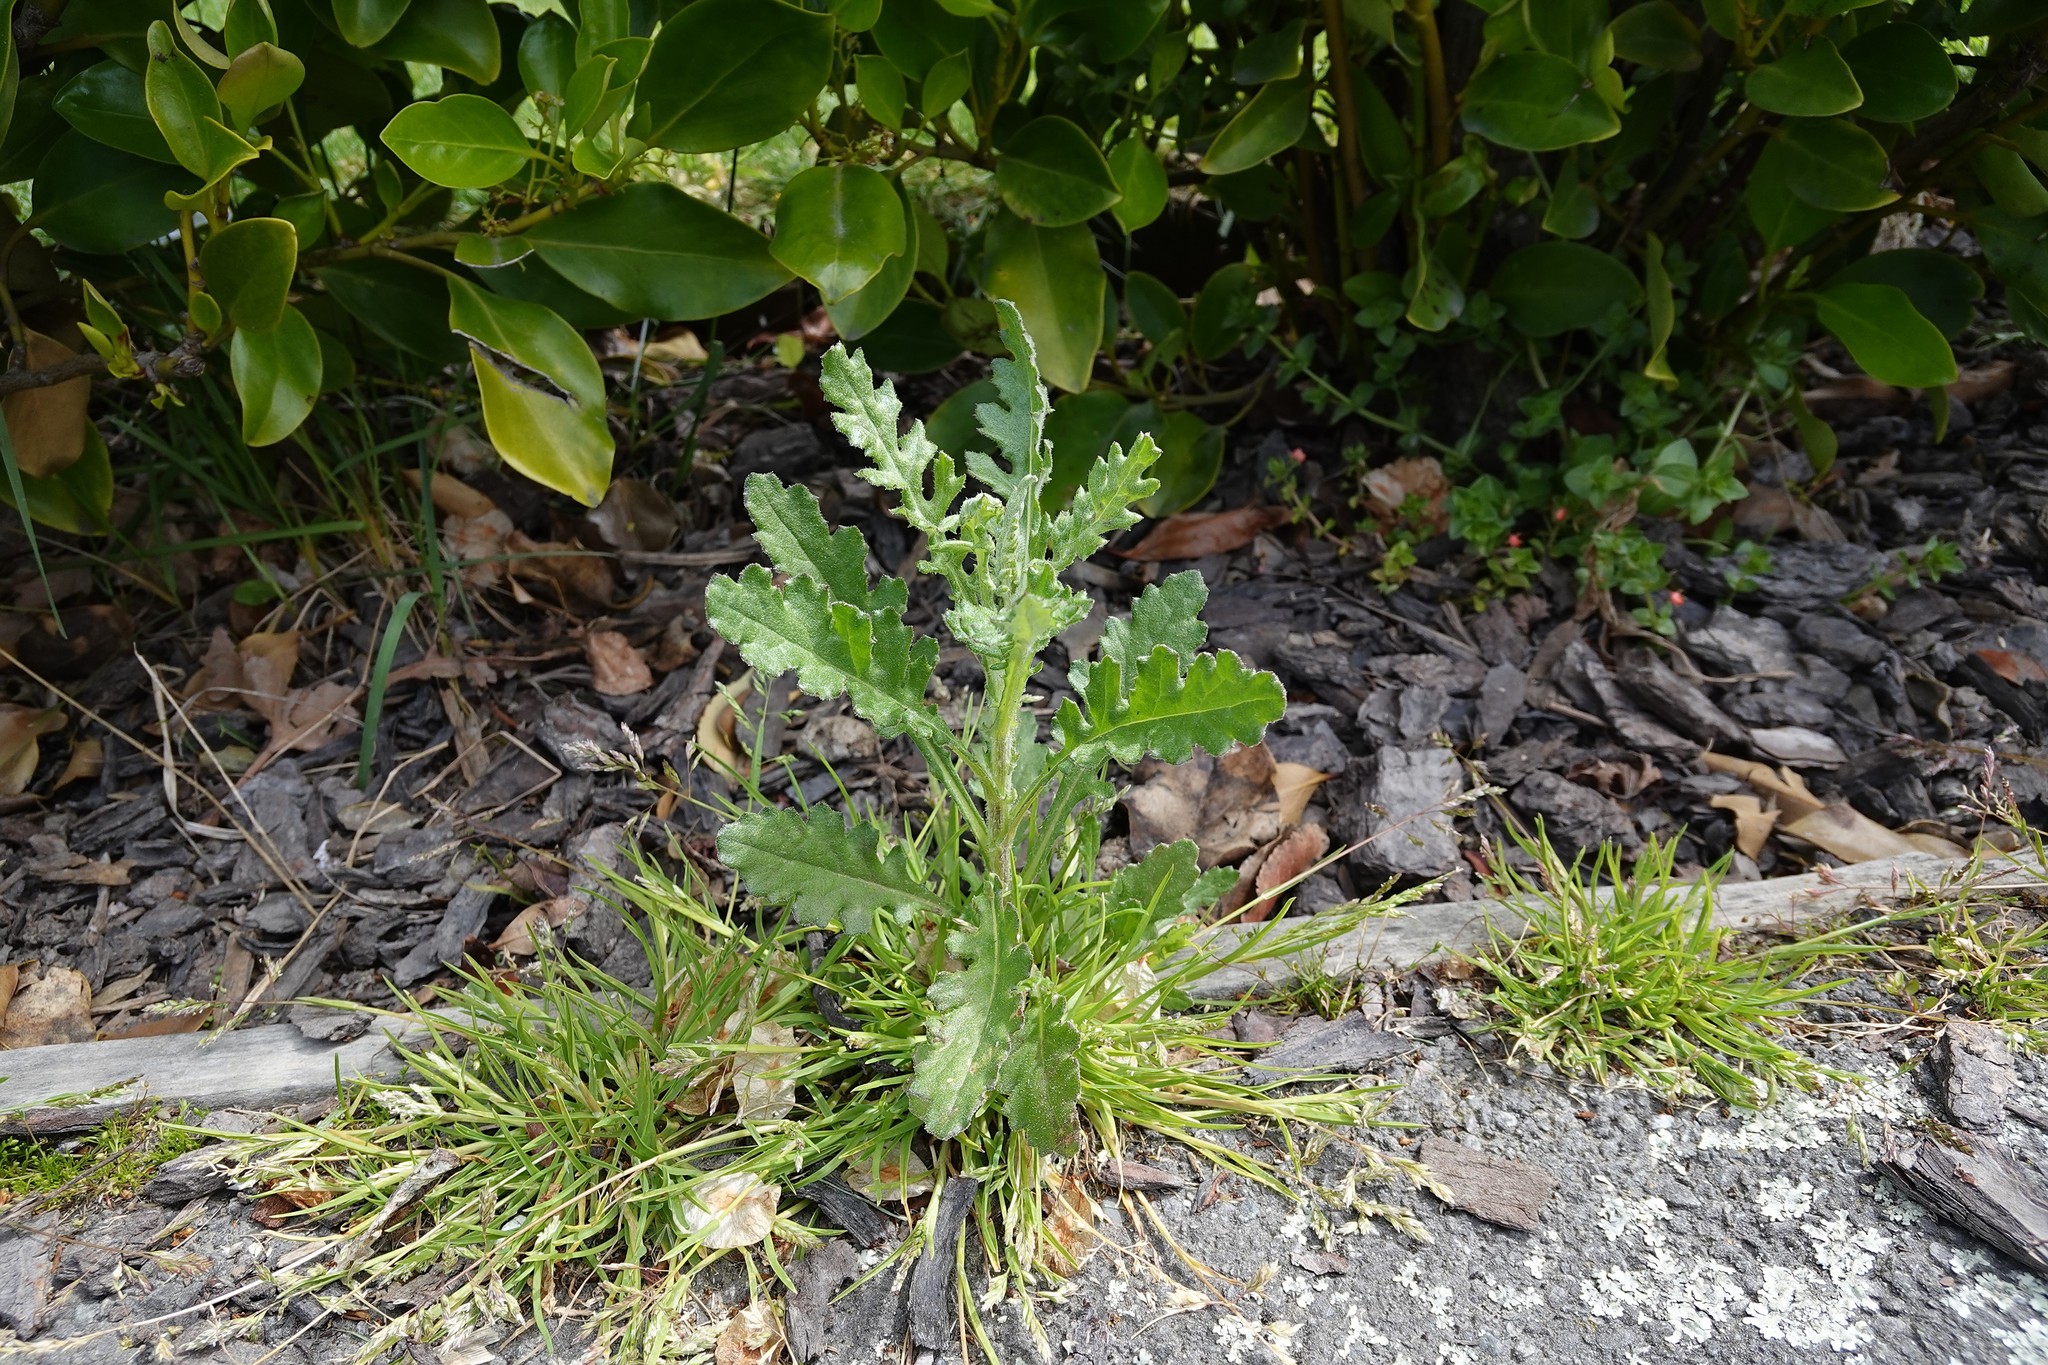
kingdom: Plantae
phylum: Tracheophyta
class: Magnoliopsida
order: Asterales
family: Asteraceae
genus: Senecio
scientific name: Senecio glomeratus
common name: Cutleaf burnweed
